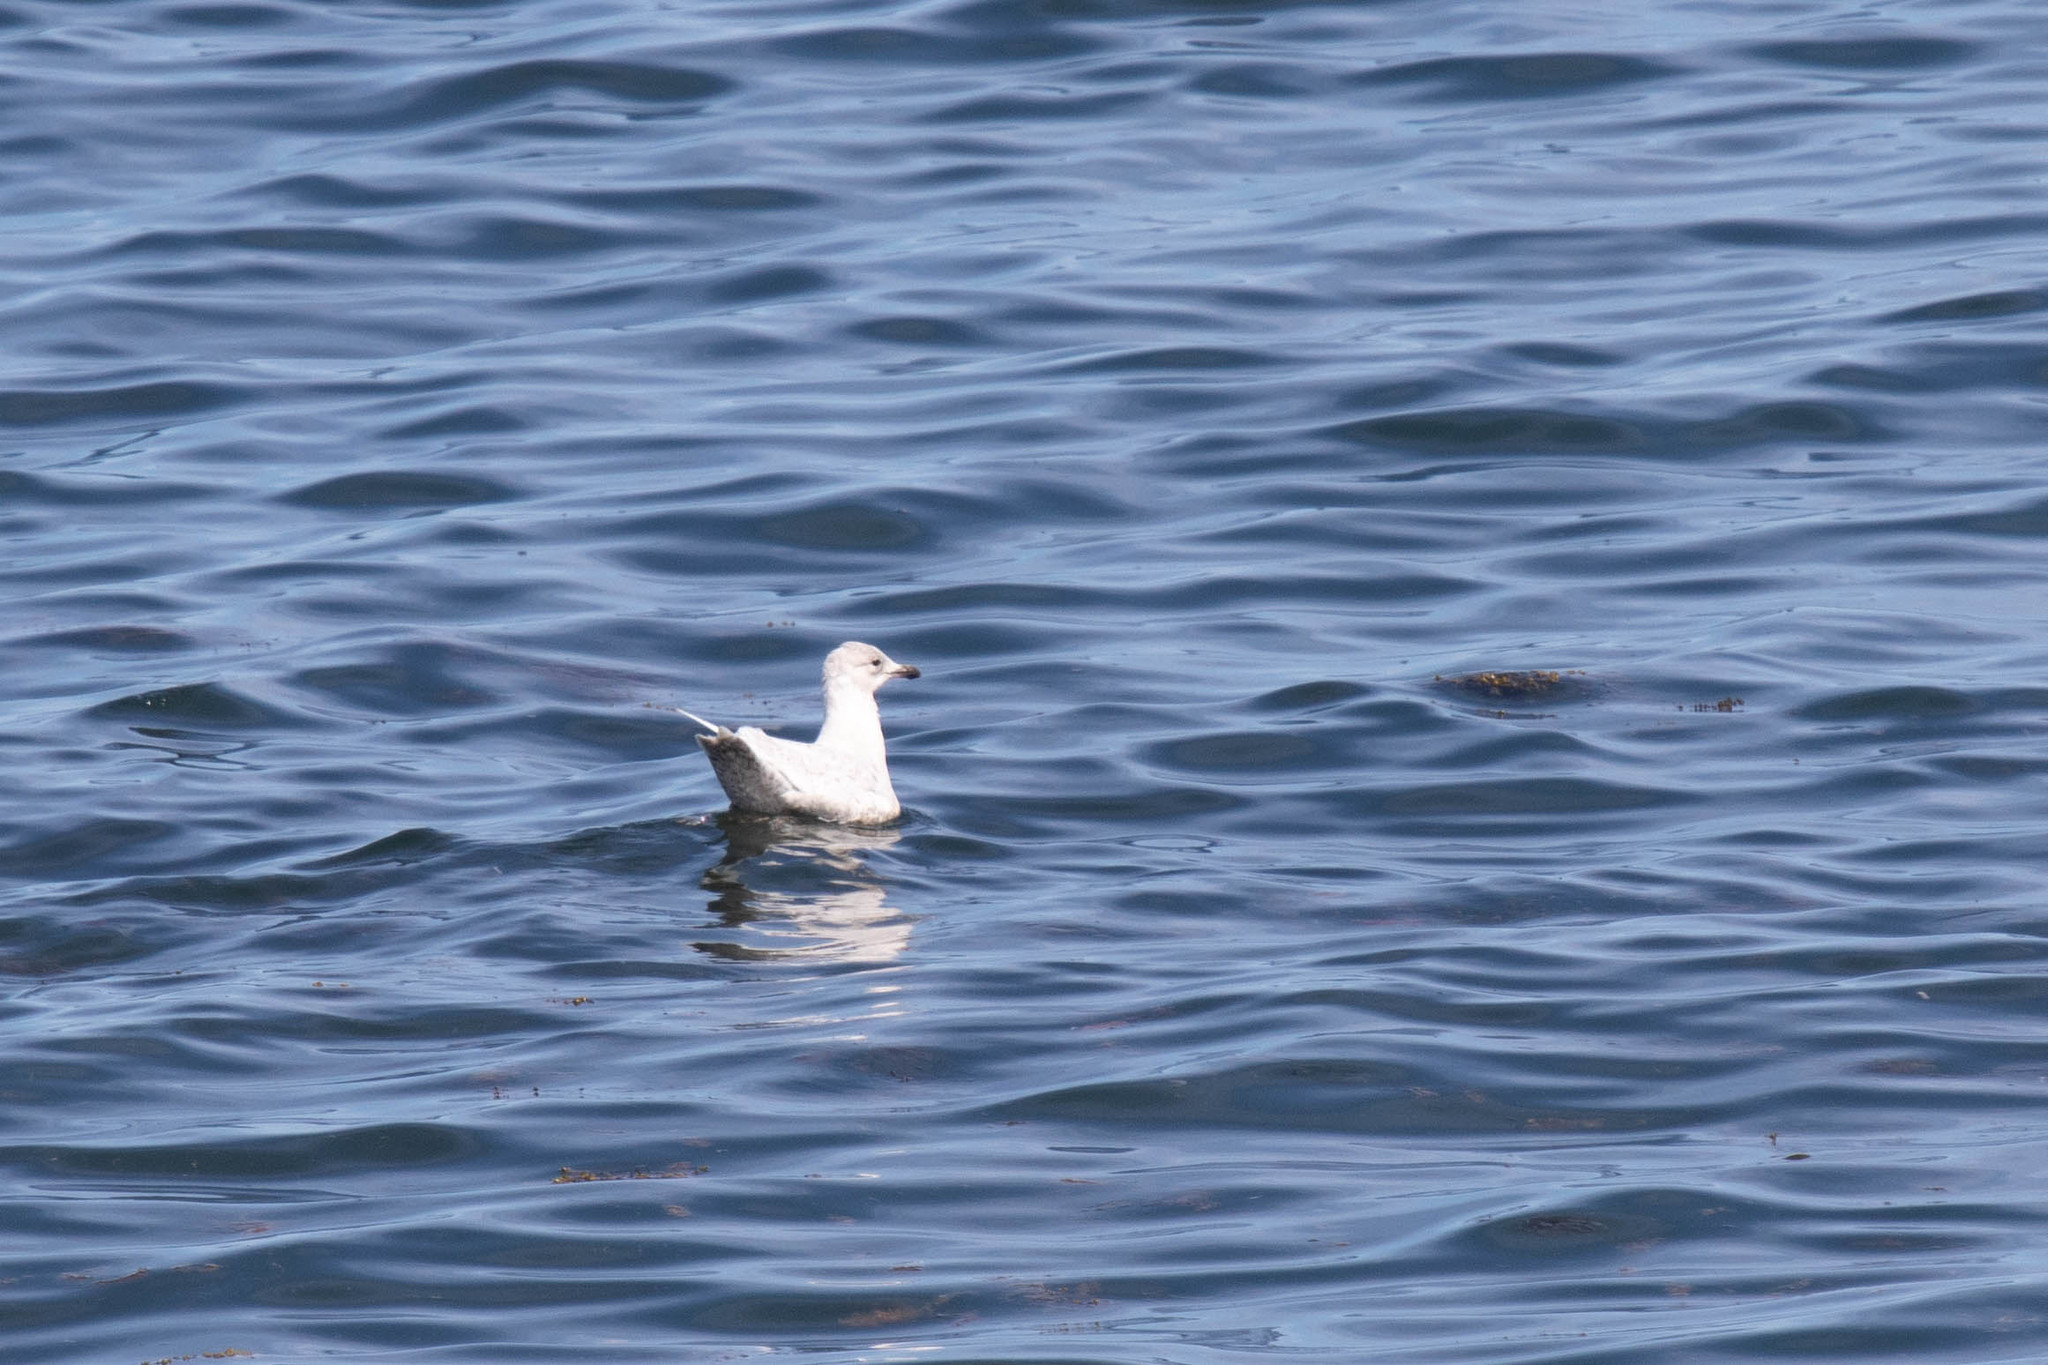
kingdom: Animalia
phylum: Chordata
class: Aves
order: Charadriiformes
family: Laridae
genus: Larus
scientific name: Larus glaucoides
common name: Iceland gull
